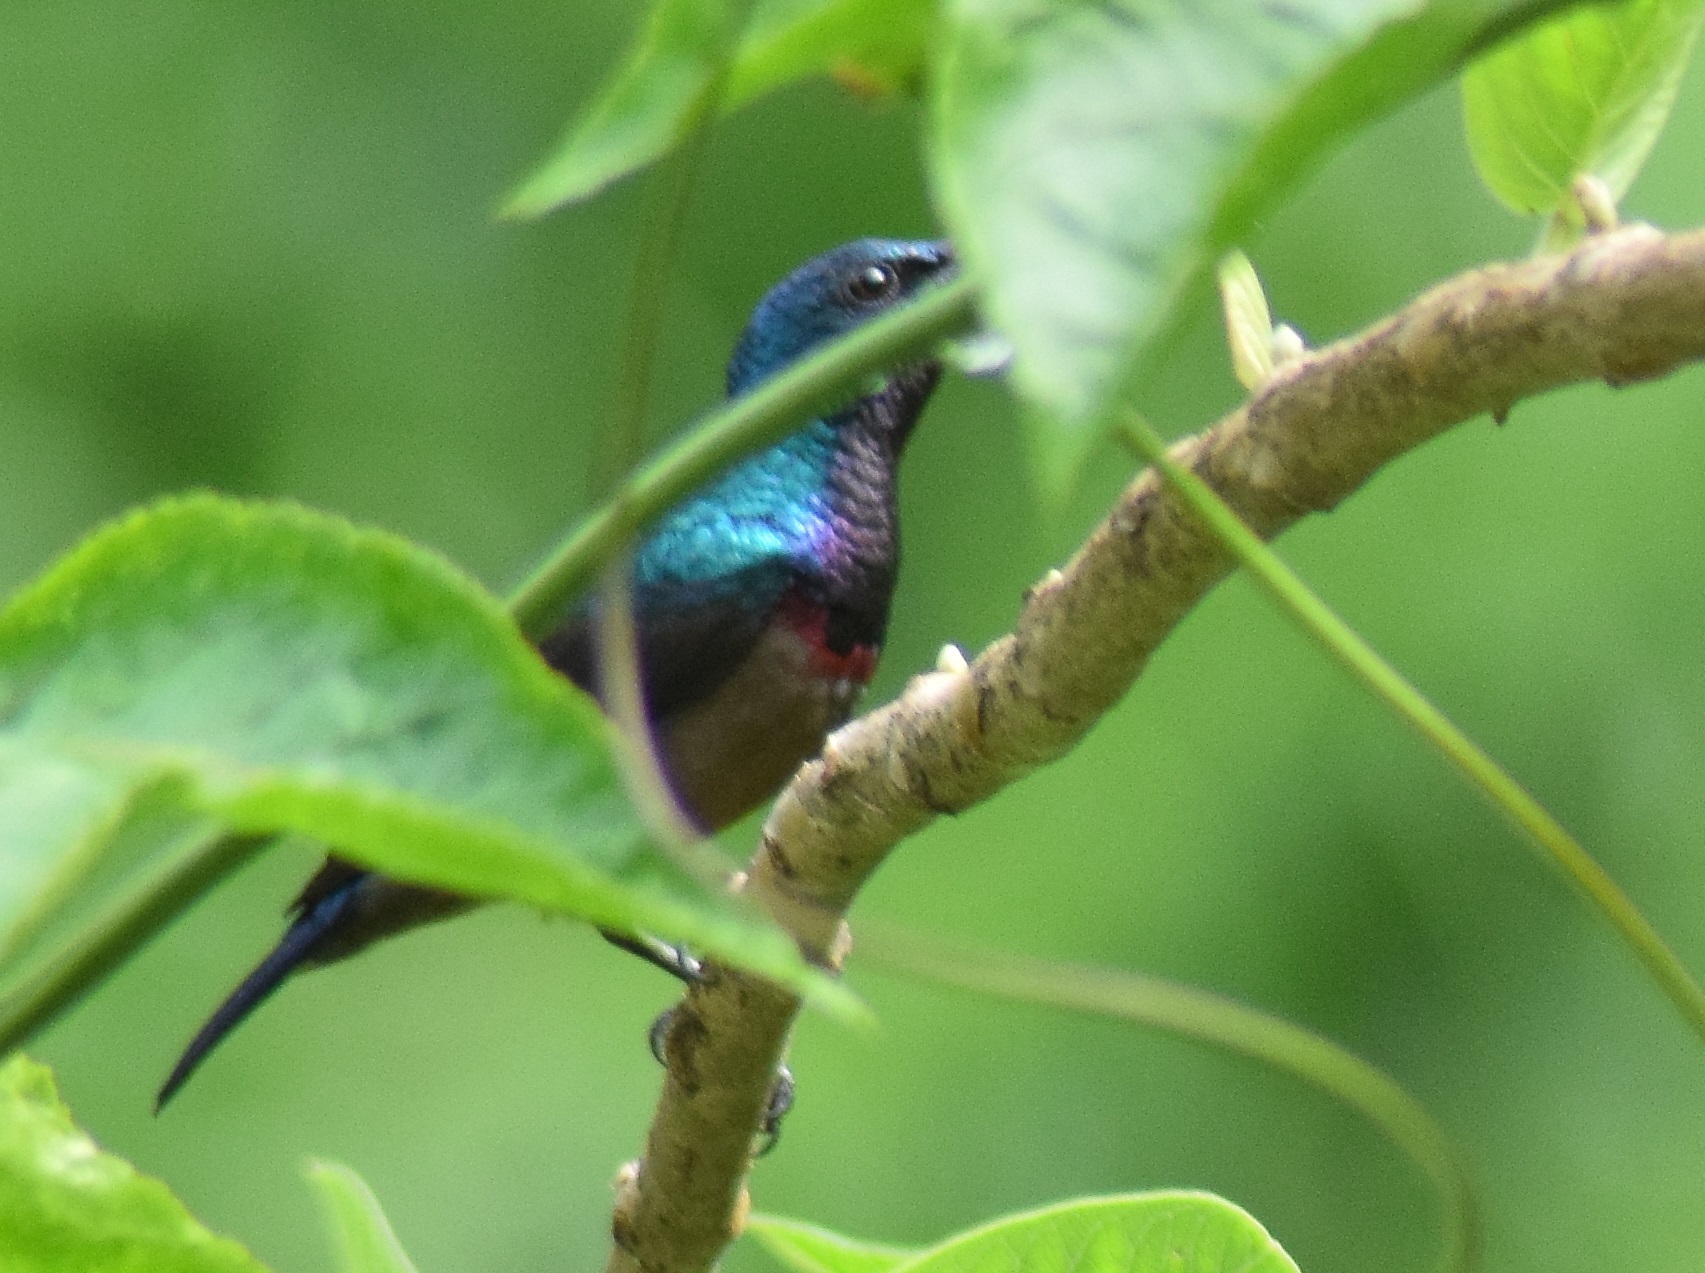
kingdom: Animalia
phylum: Chordata
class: Aves
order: Passeriformes
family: Nectariniidae
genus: Cinnyris
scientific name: Cinnyris lotenius
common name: Loten's sunbird
